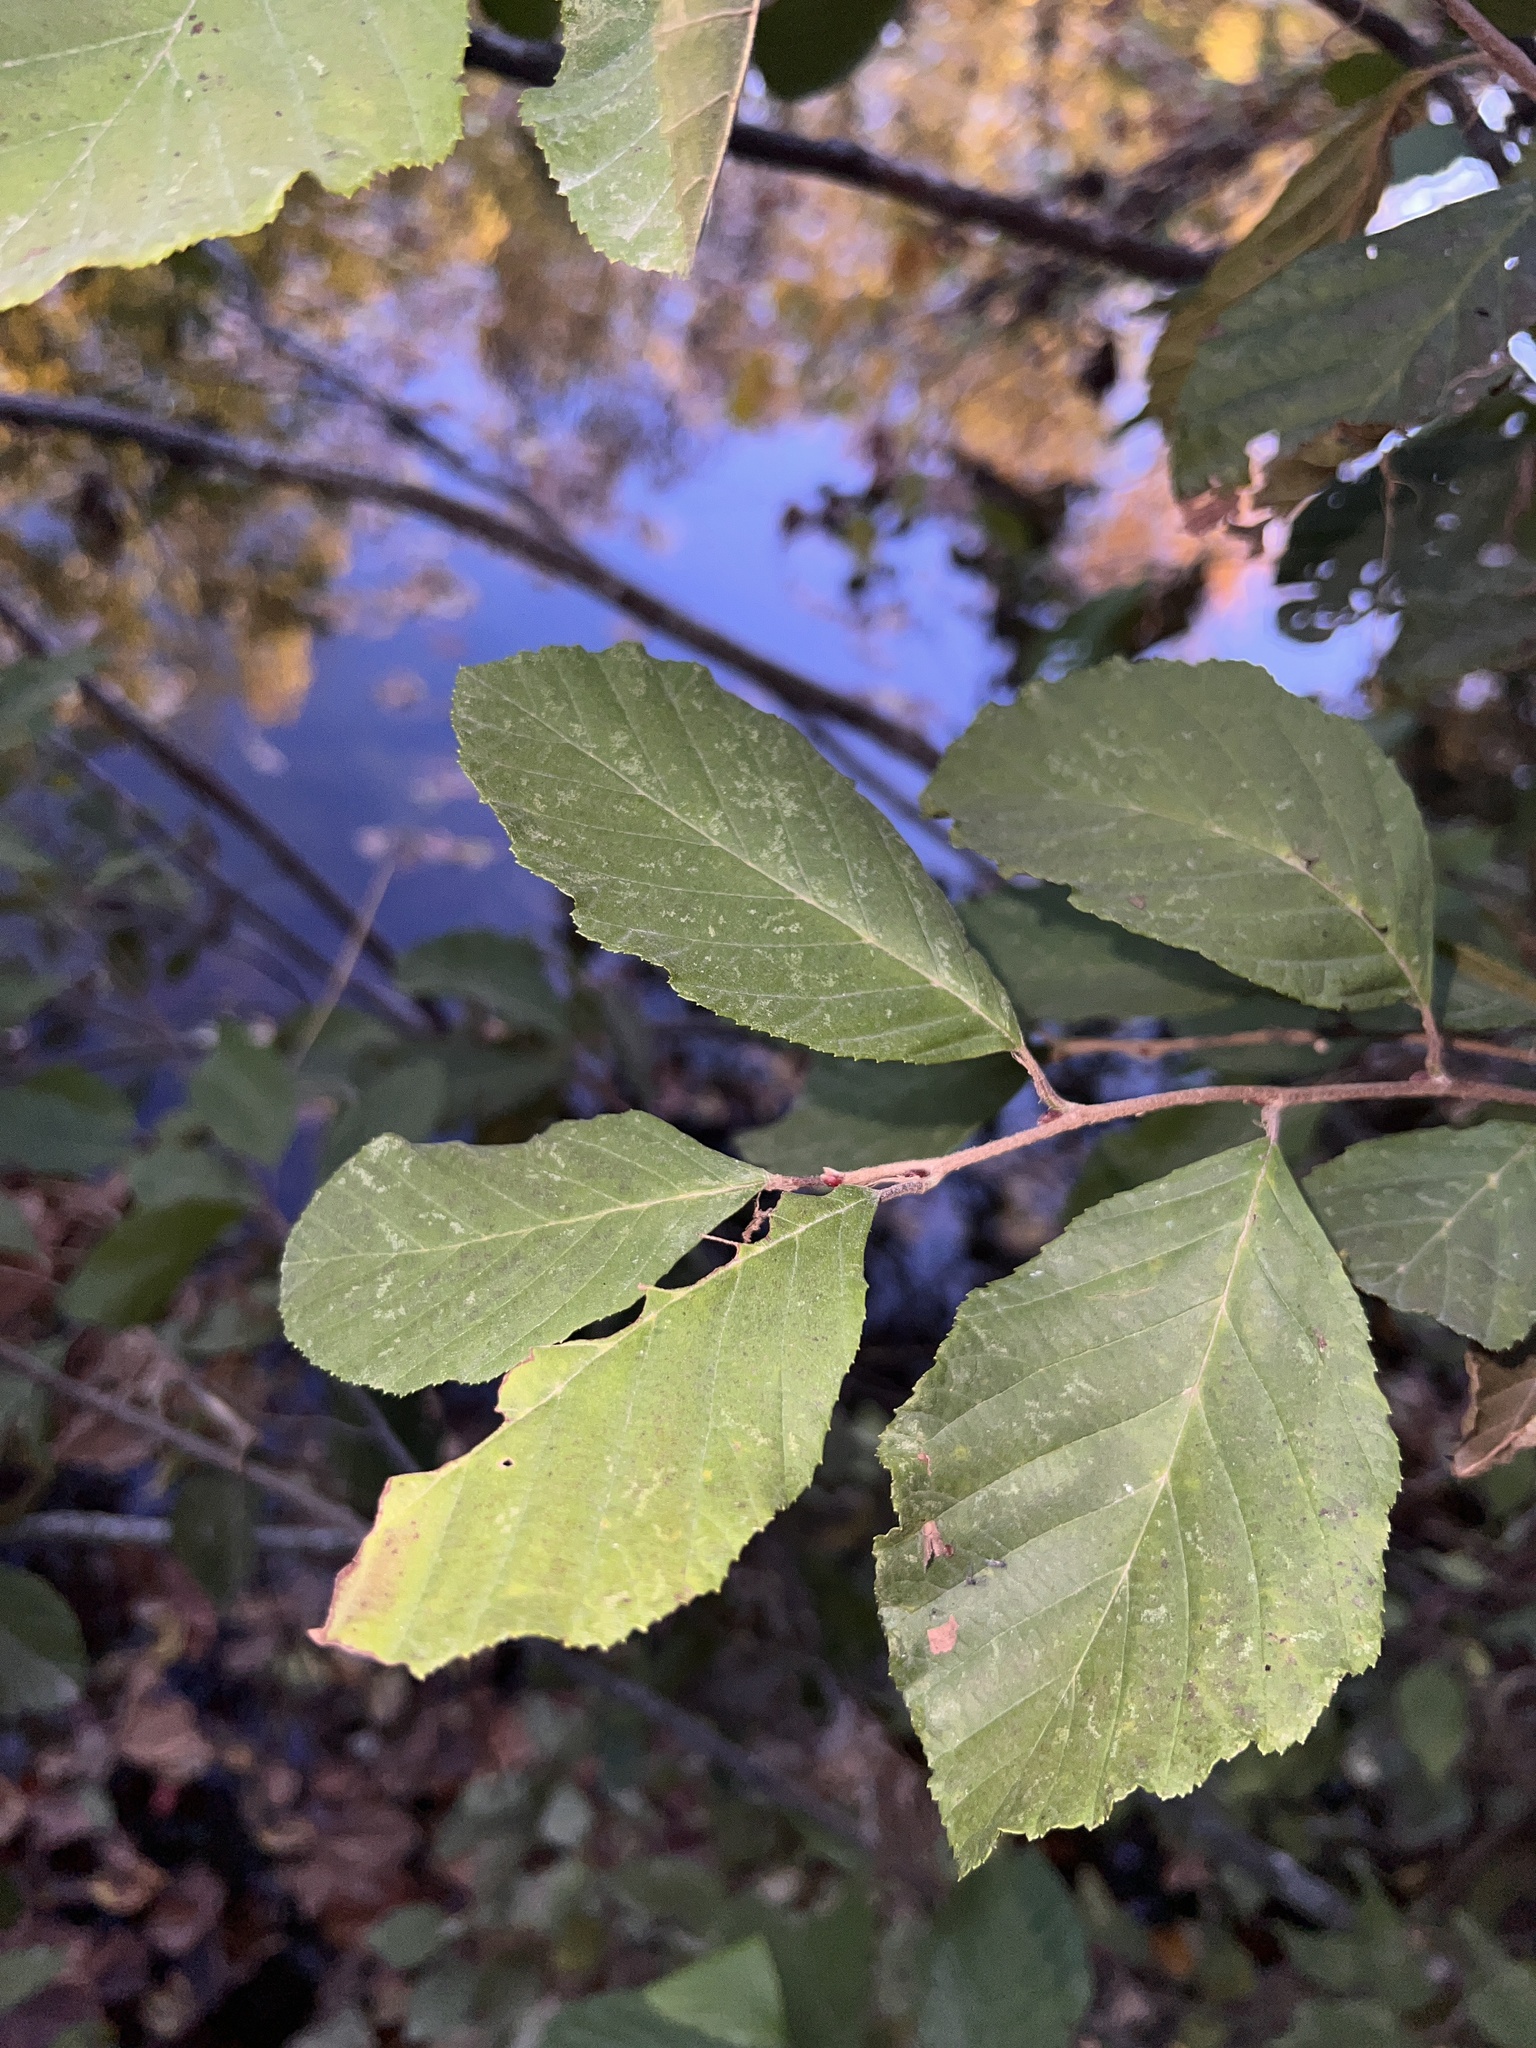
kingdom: Plantae
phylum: Tracheophyta
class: Magnoliopsida
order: Fagales
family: Betulaceae
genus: Alnus
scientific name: Alnus serrulata
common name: Hazel alder
